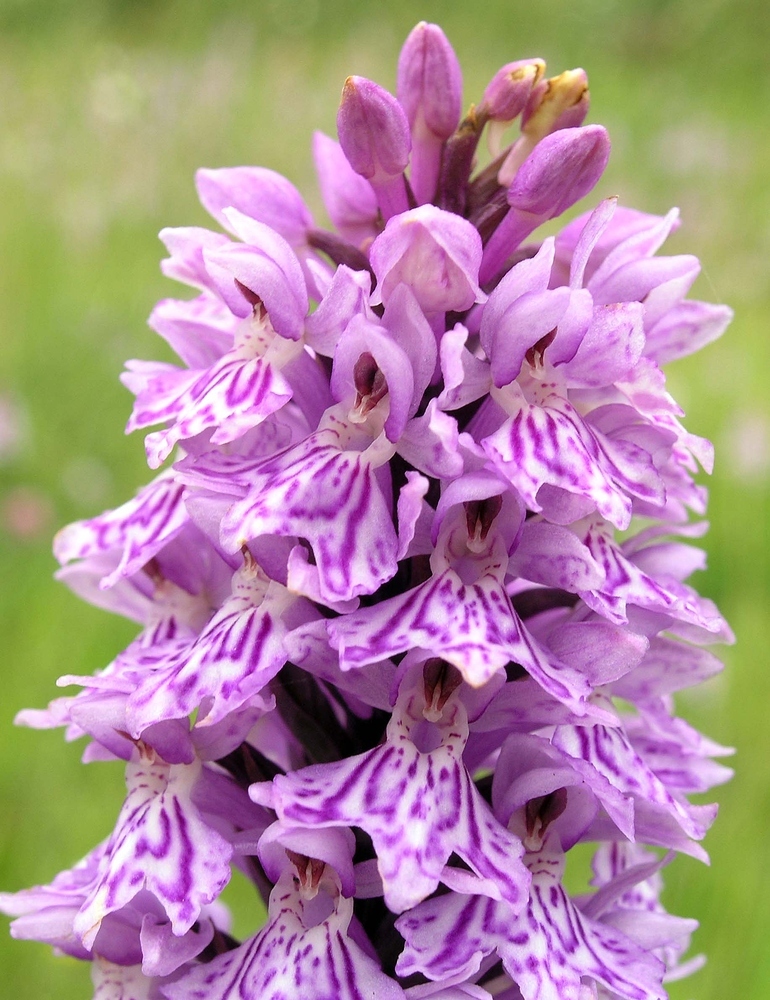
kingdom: Plantae
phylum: Tracheophyta
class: Liliopsida
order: Asparagales
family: Orchidaceae
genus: Dactylorhiza
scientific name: Dactylorhiza maculata
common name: Heath spotted-orchid
